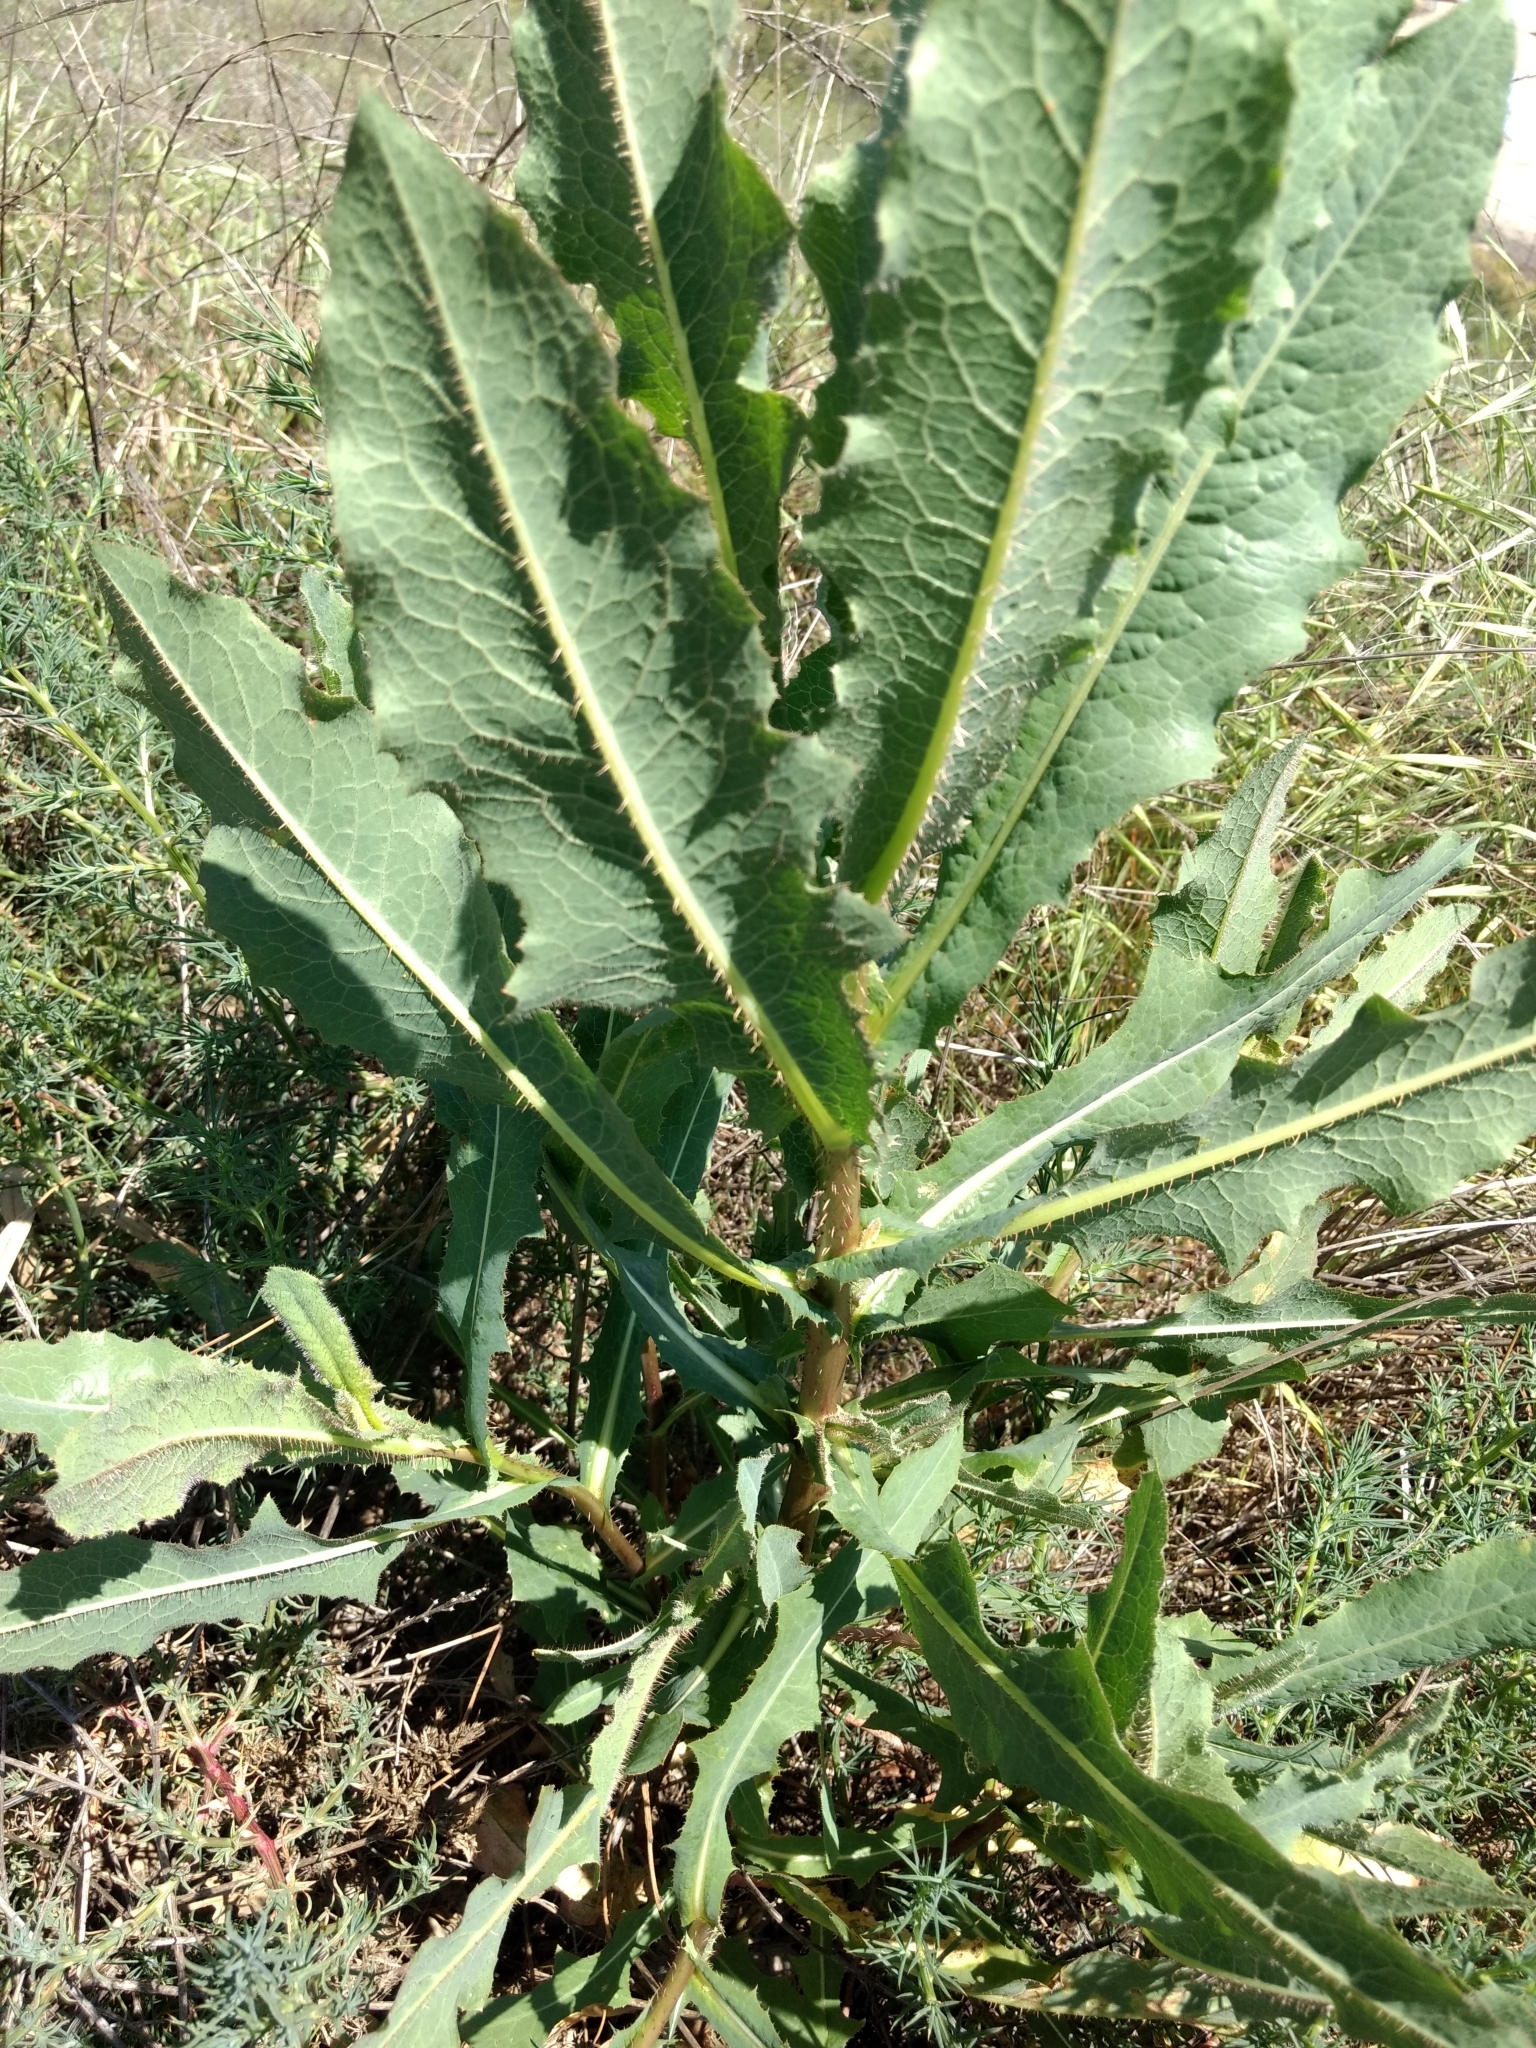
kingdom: Plantae
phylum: Tracheophyta
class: Magnoliopsida
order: Asterales
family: Asteraceae
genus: Lactuca
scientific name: Lactuca serriola
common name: Prickly lettuce
